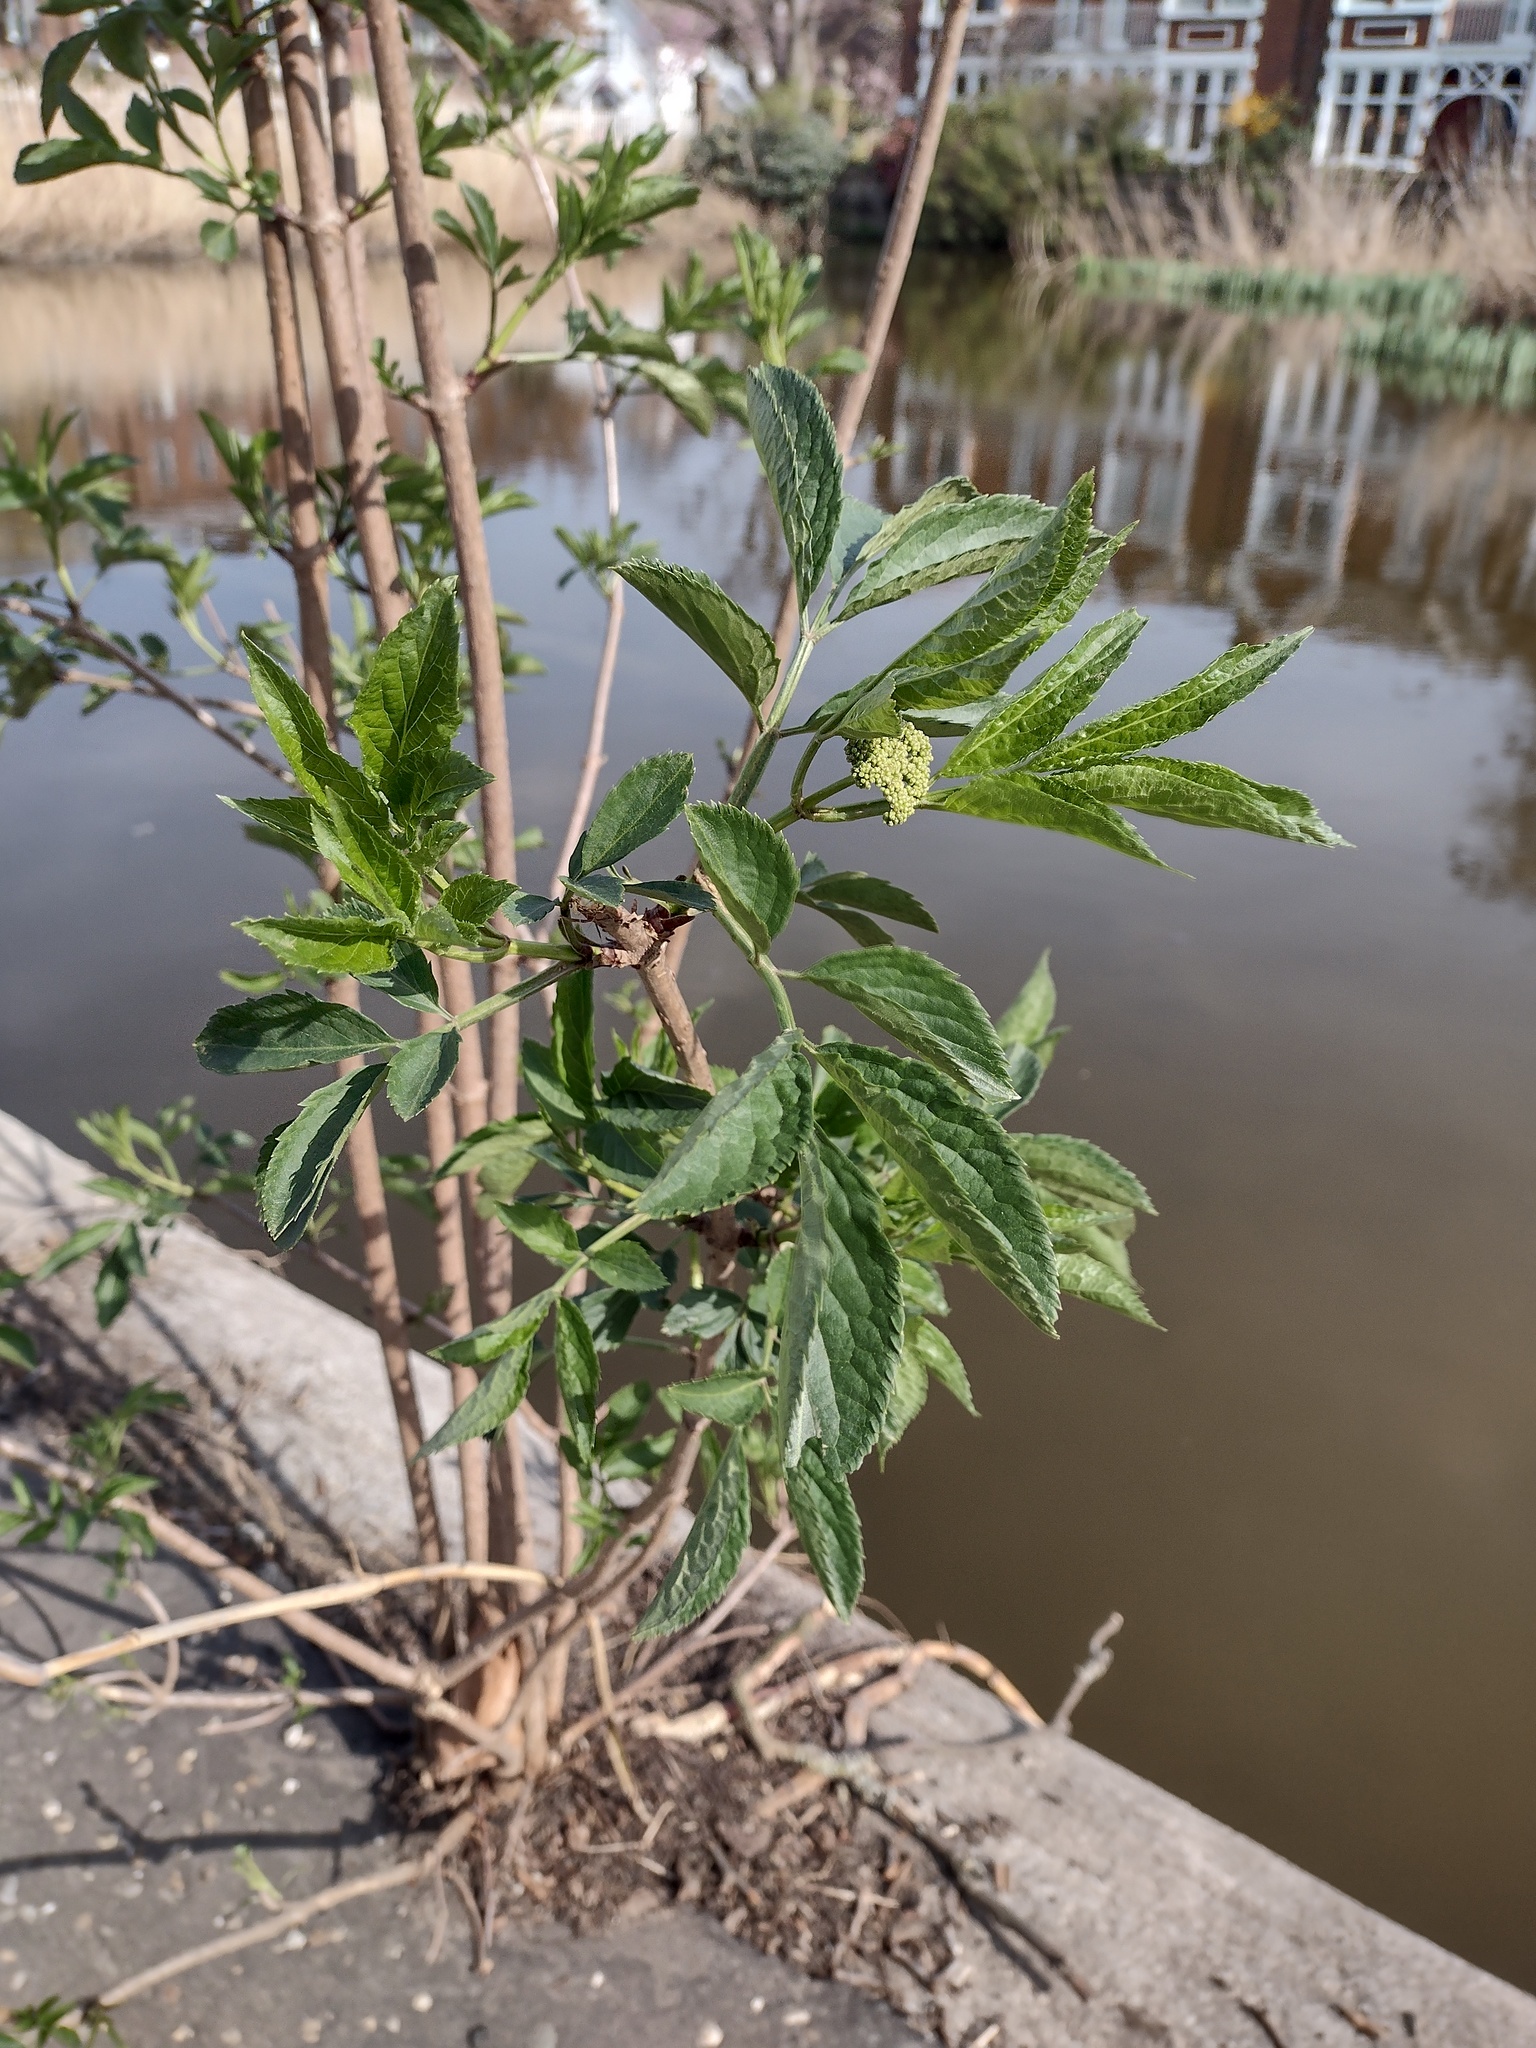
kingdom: Plantae
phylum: Tracheophyta
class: Magnoliopsida
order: Dipsacales
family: Viburnaceae
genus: Sambucus
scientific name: Sambucus nigra
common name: Elder
